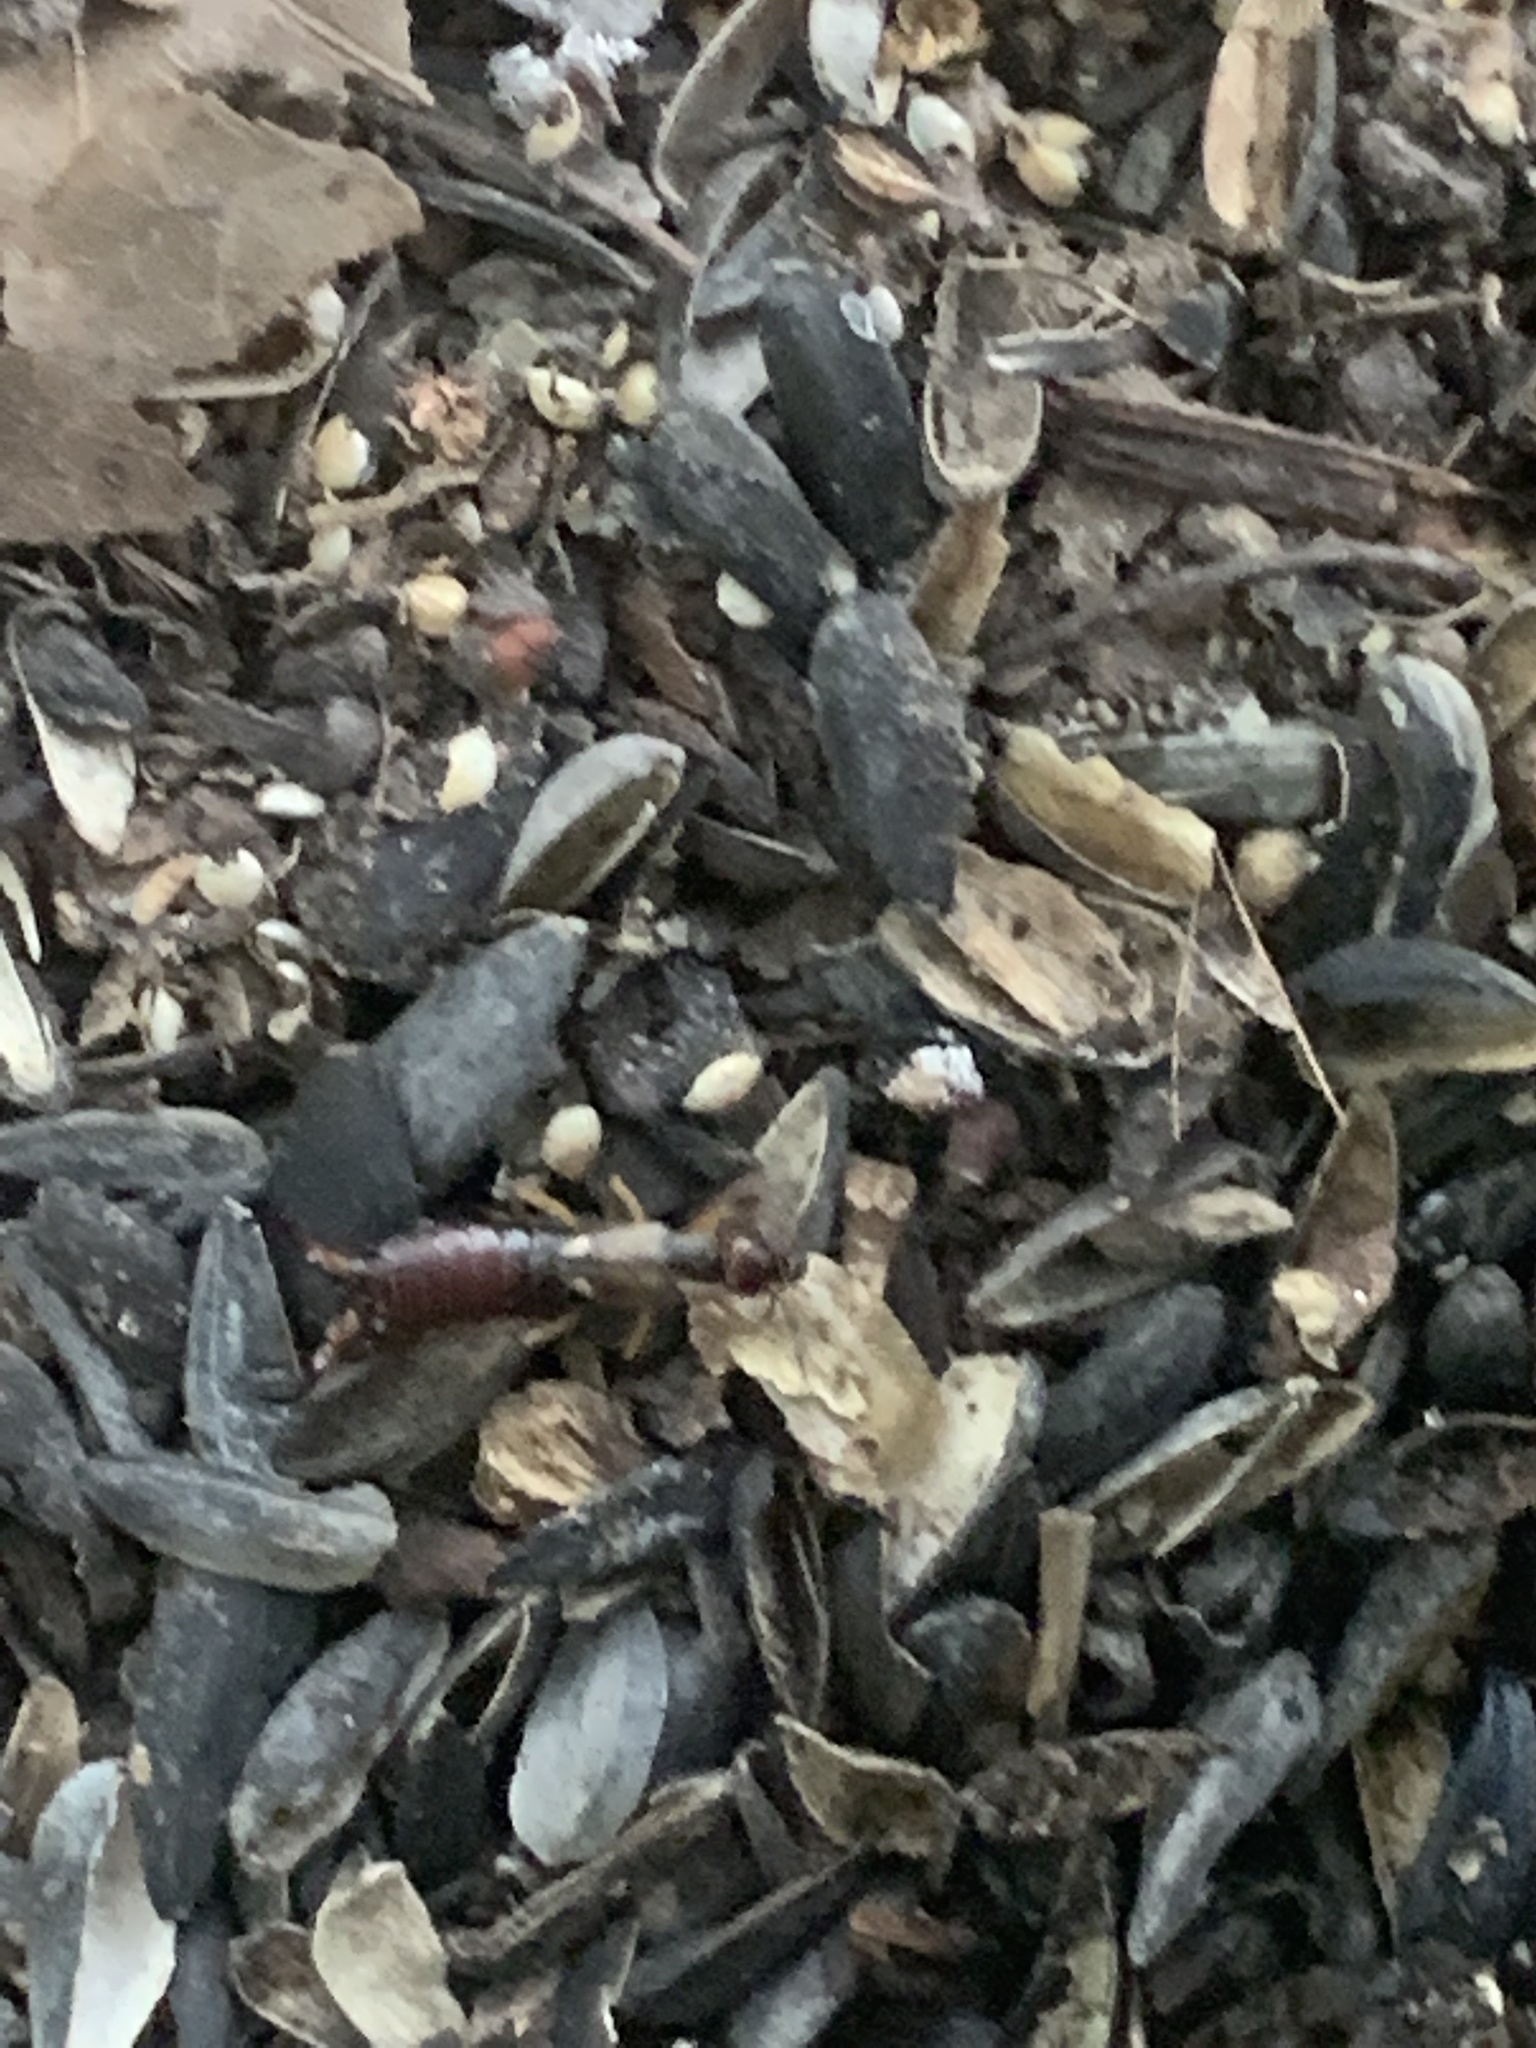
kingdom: Animalia
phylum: Arthropoda
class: Insecta
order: Dermaptera
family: Forficulidae
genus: Forficula
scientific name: Forficula
